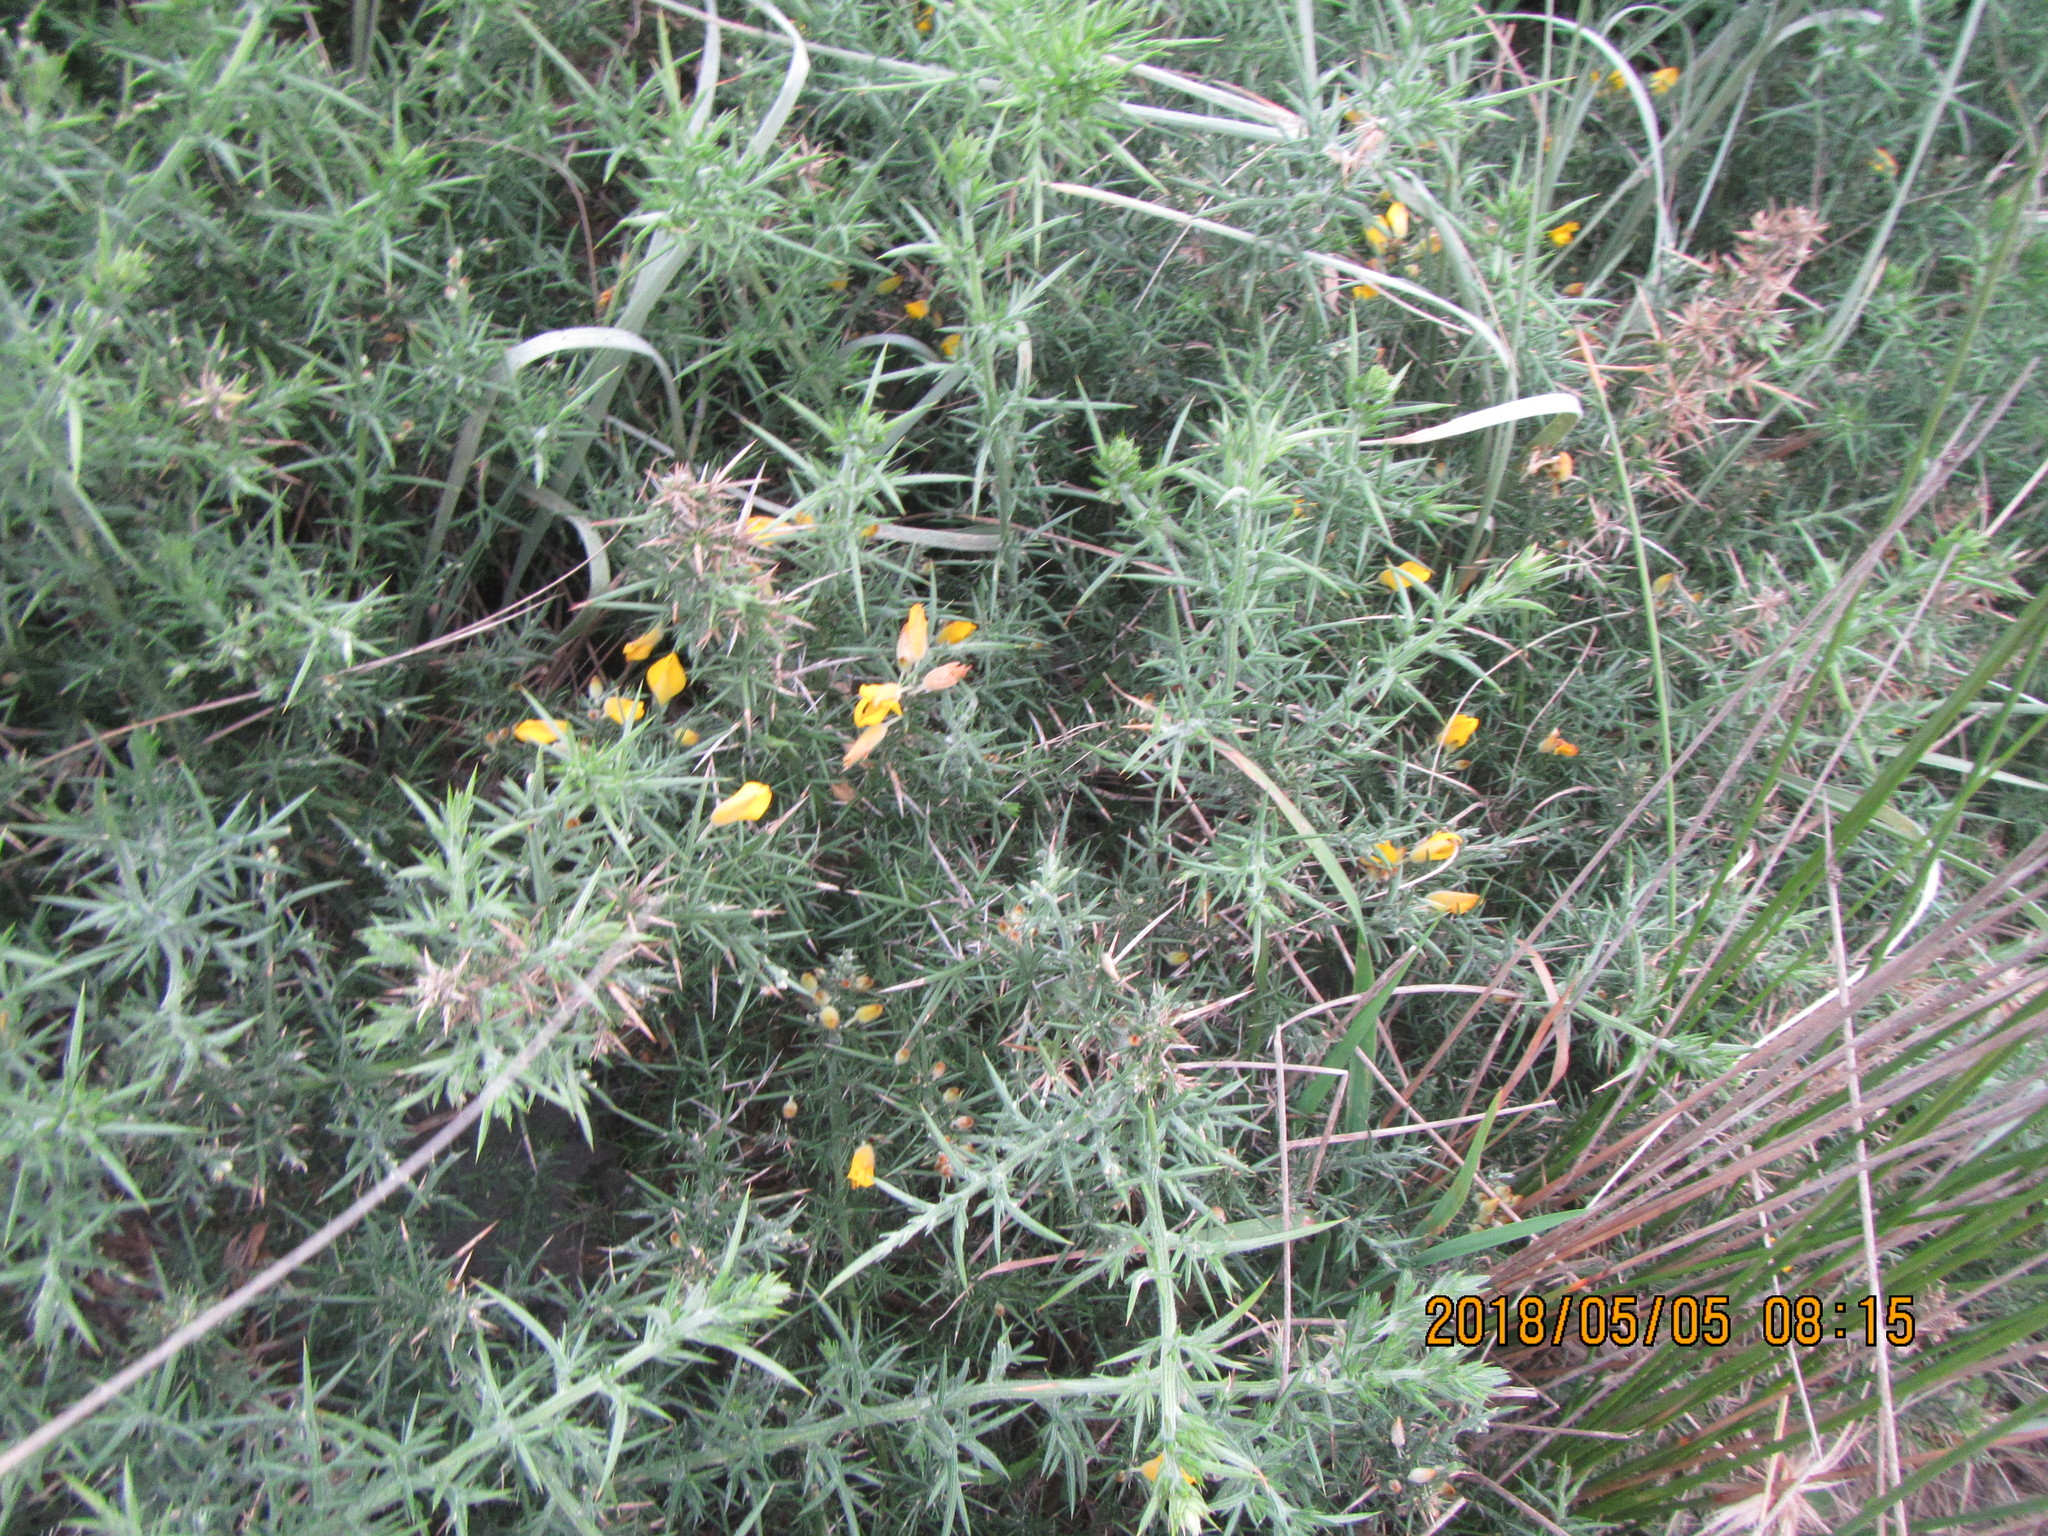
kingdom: Plantae
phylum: Tracheophyta
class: Magnoliopsida
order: Fabales
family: Fabaceae
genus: Ulex
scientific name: Ulex europaeus
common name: Common gorse
